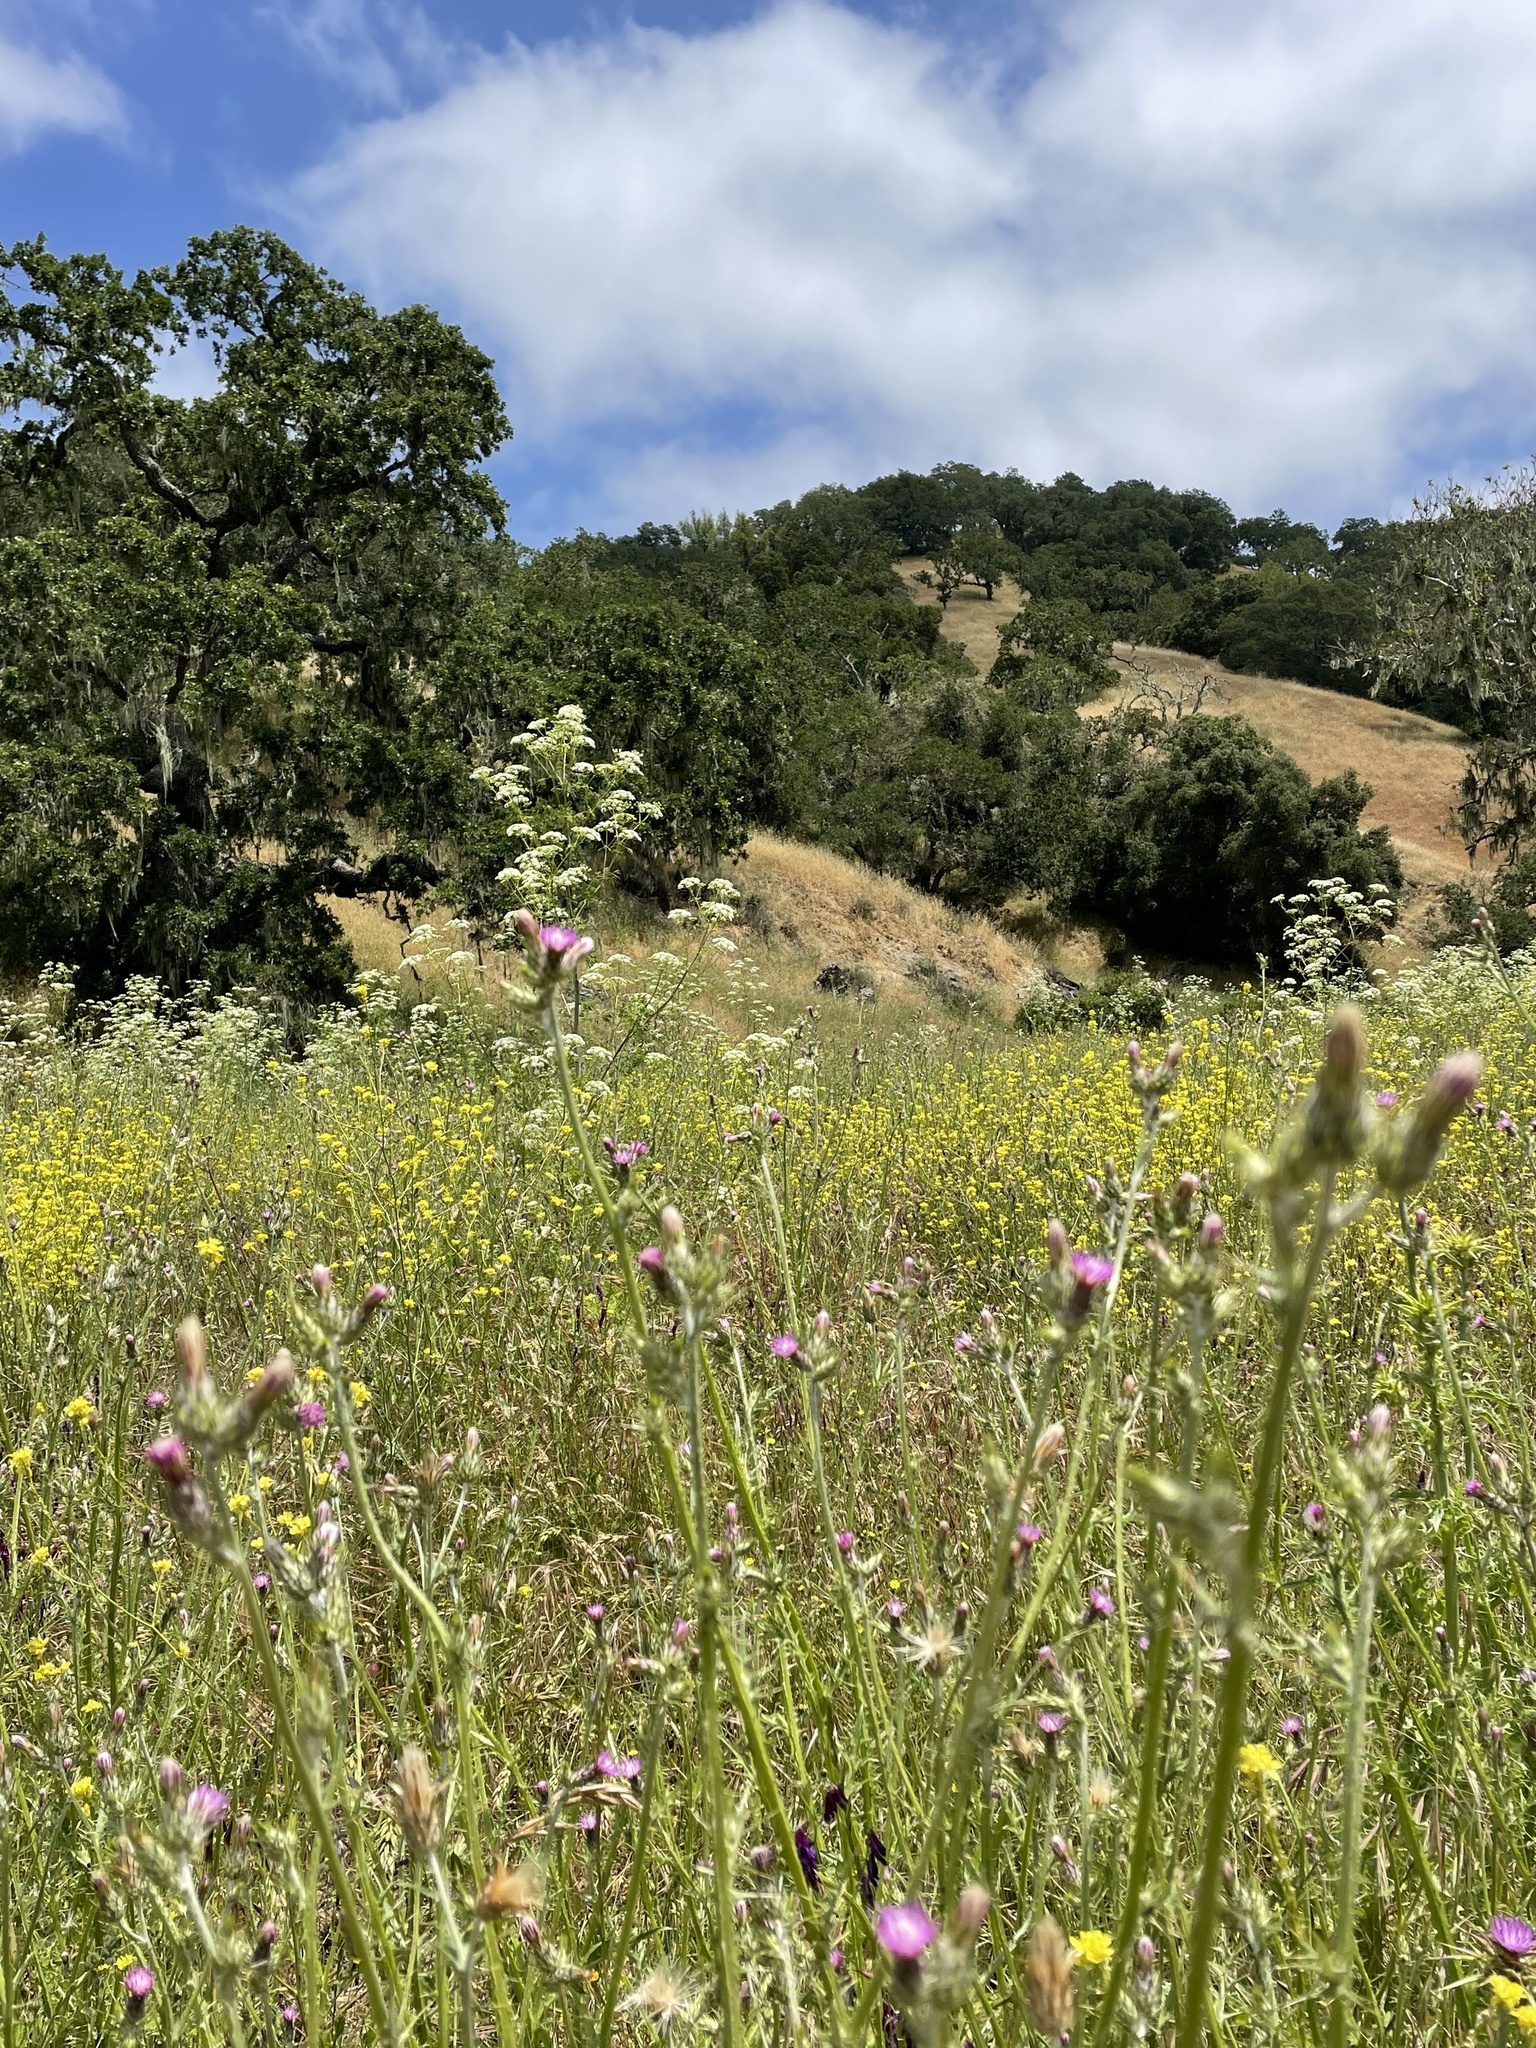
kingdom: Plantae
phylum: Tracheophyta
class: Magnoliopsida
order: Asterales
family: Asteraceae
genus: Carduus
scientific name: Carduus pycnocephalus
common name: Plymouth thistle
